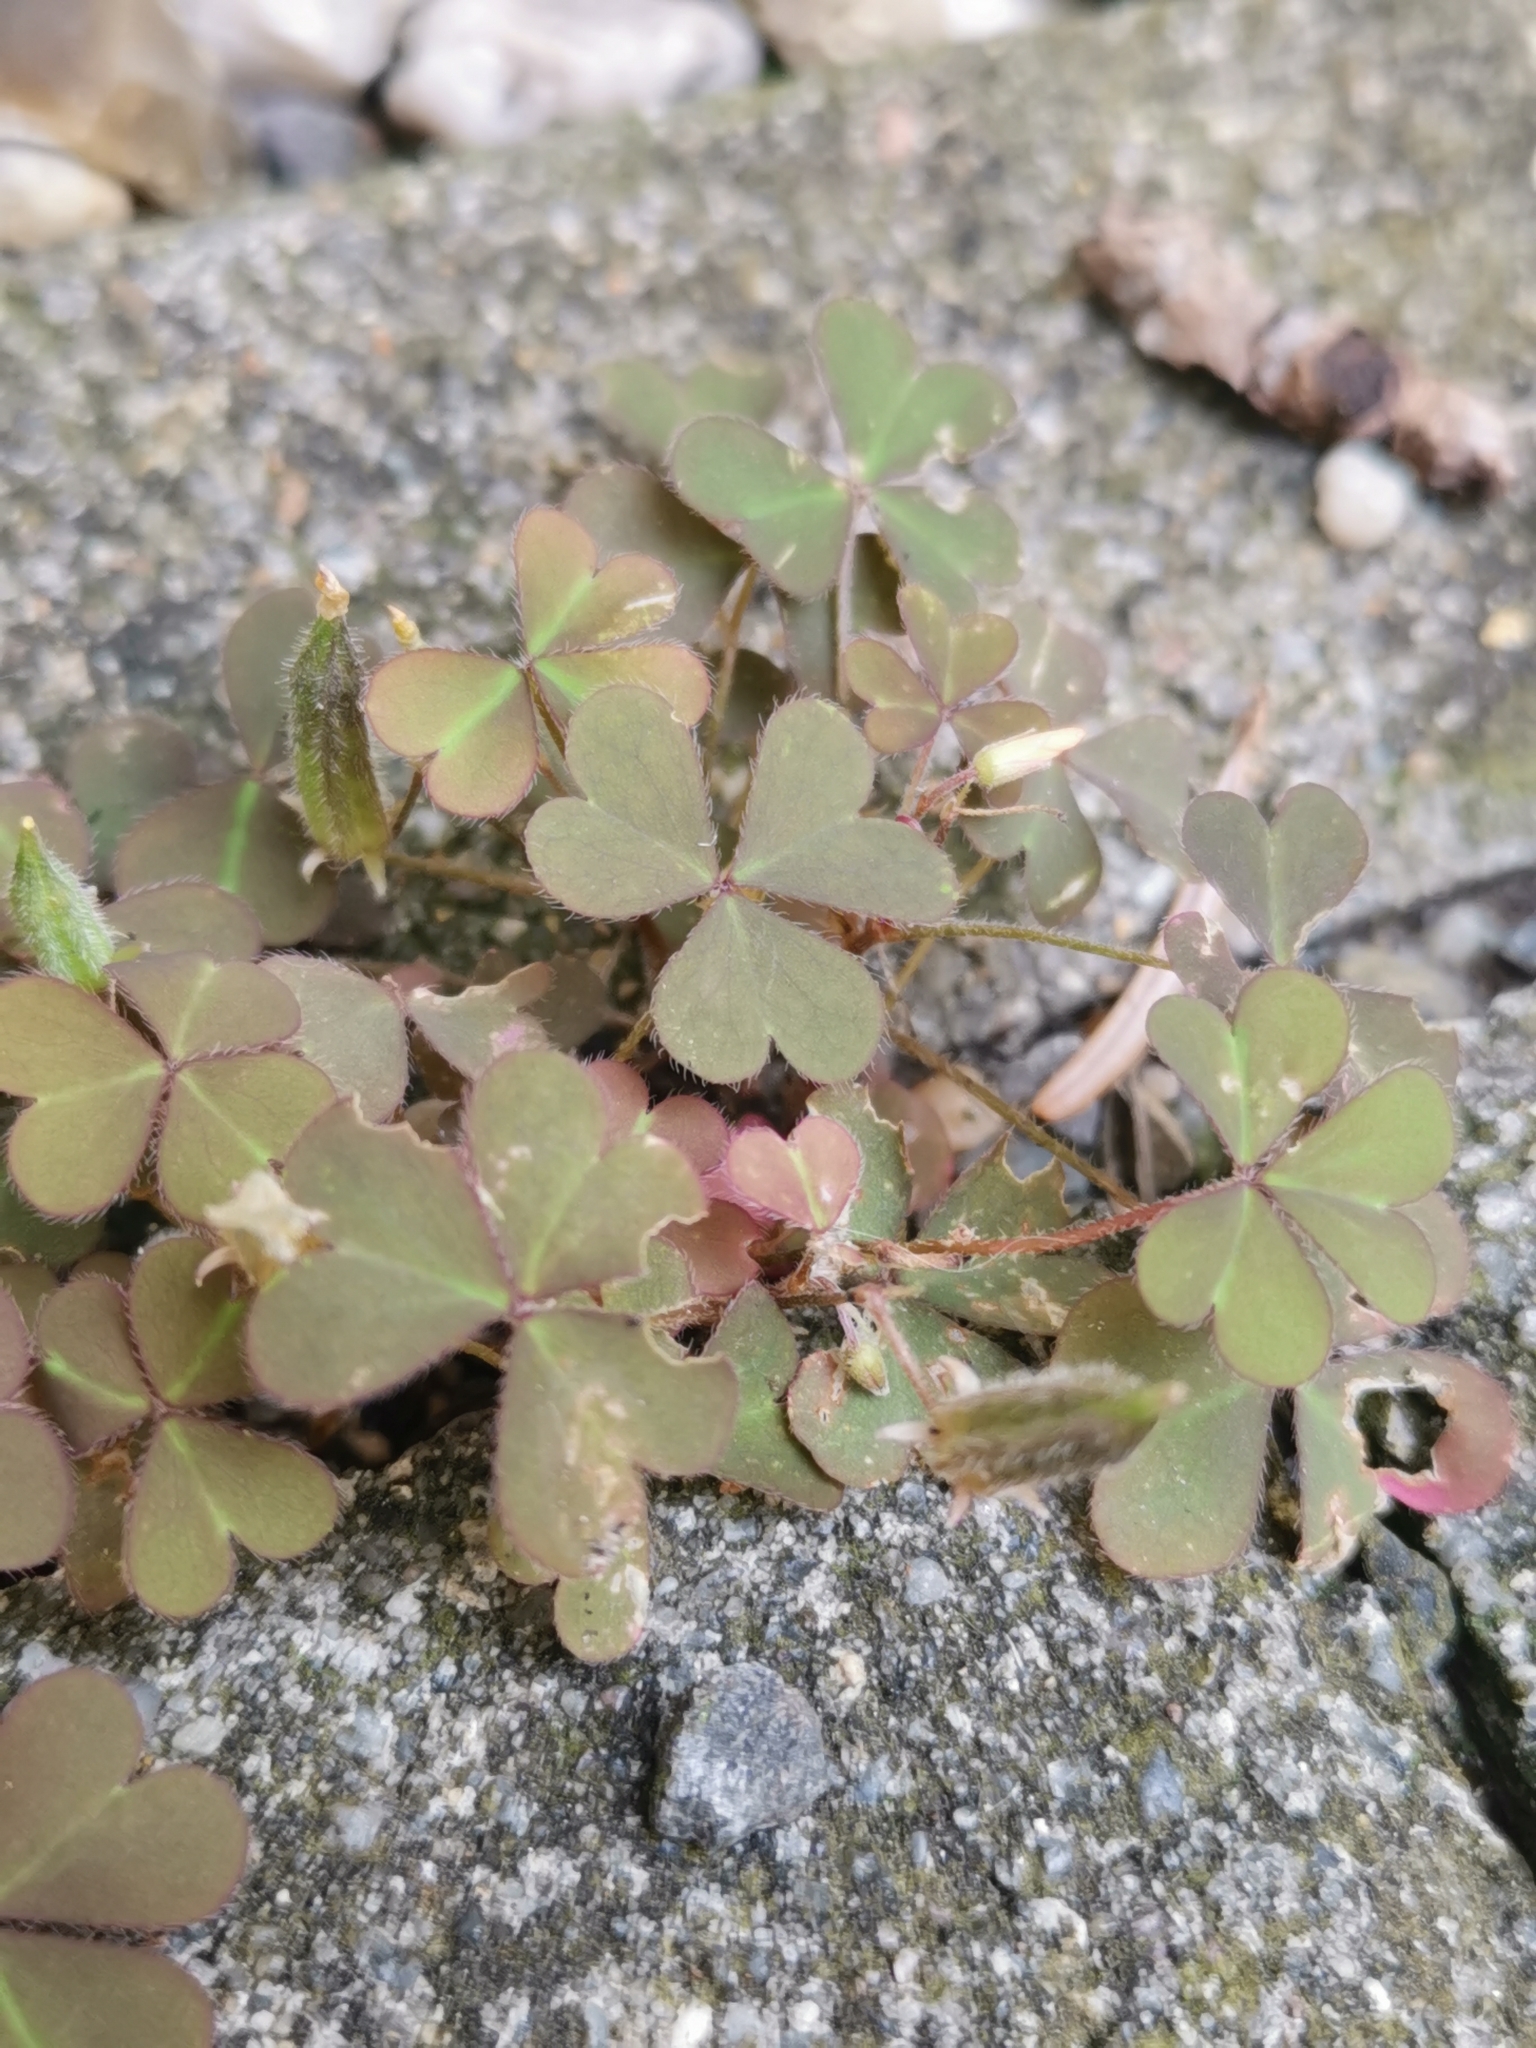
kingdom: Plantae
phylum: Tracheophyta
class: Magnoliopsida
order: Oxalidales
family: Oxalidaceae
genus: Oxalis
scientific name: Oxalis corniculata
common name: Procumbent yellow-sorrel
